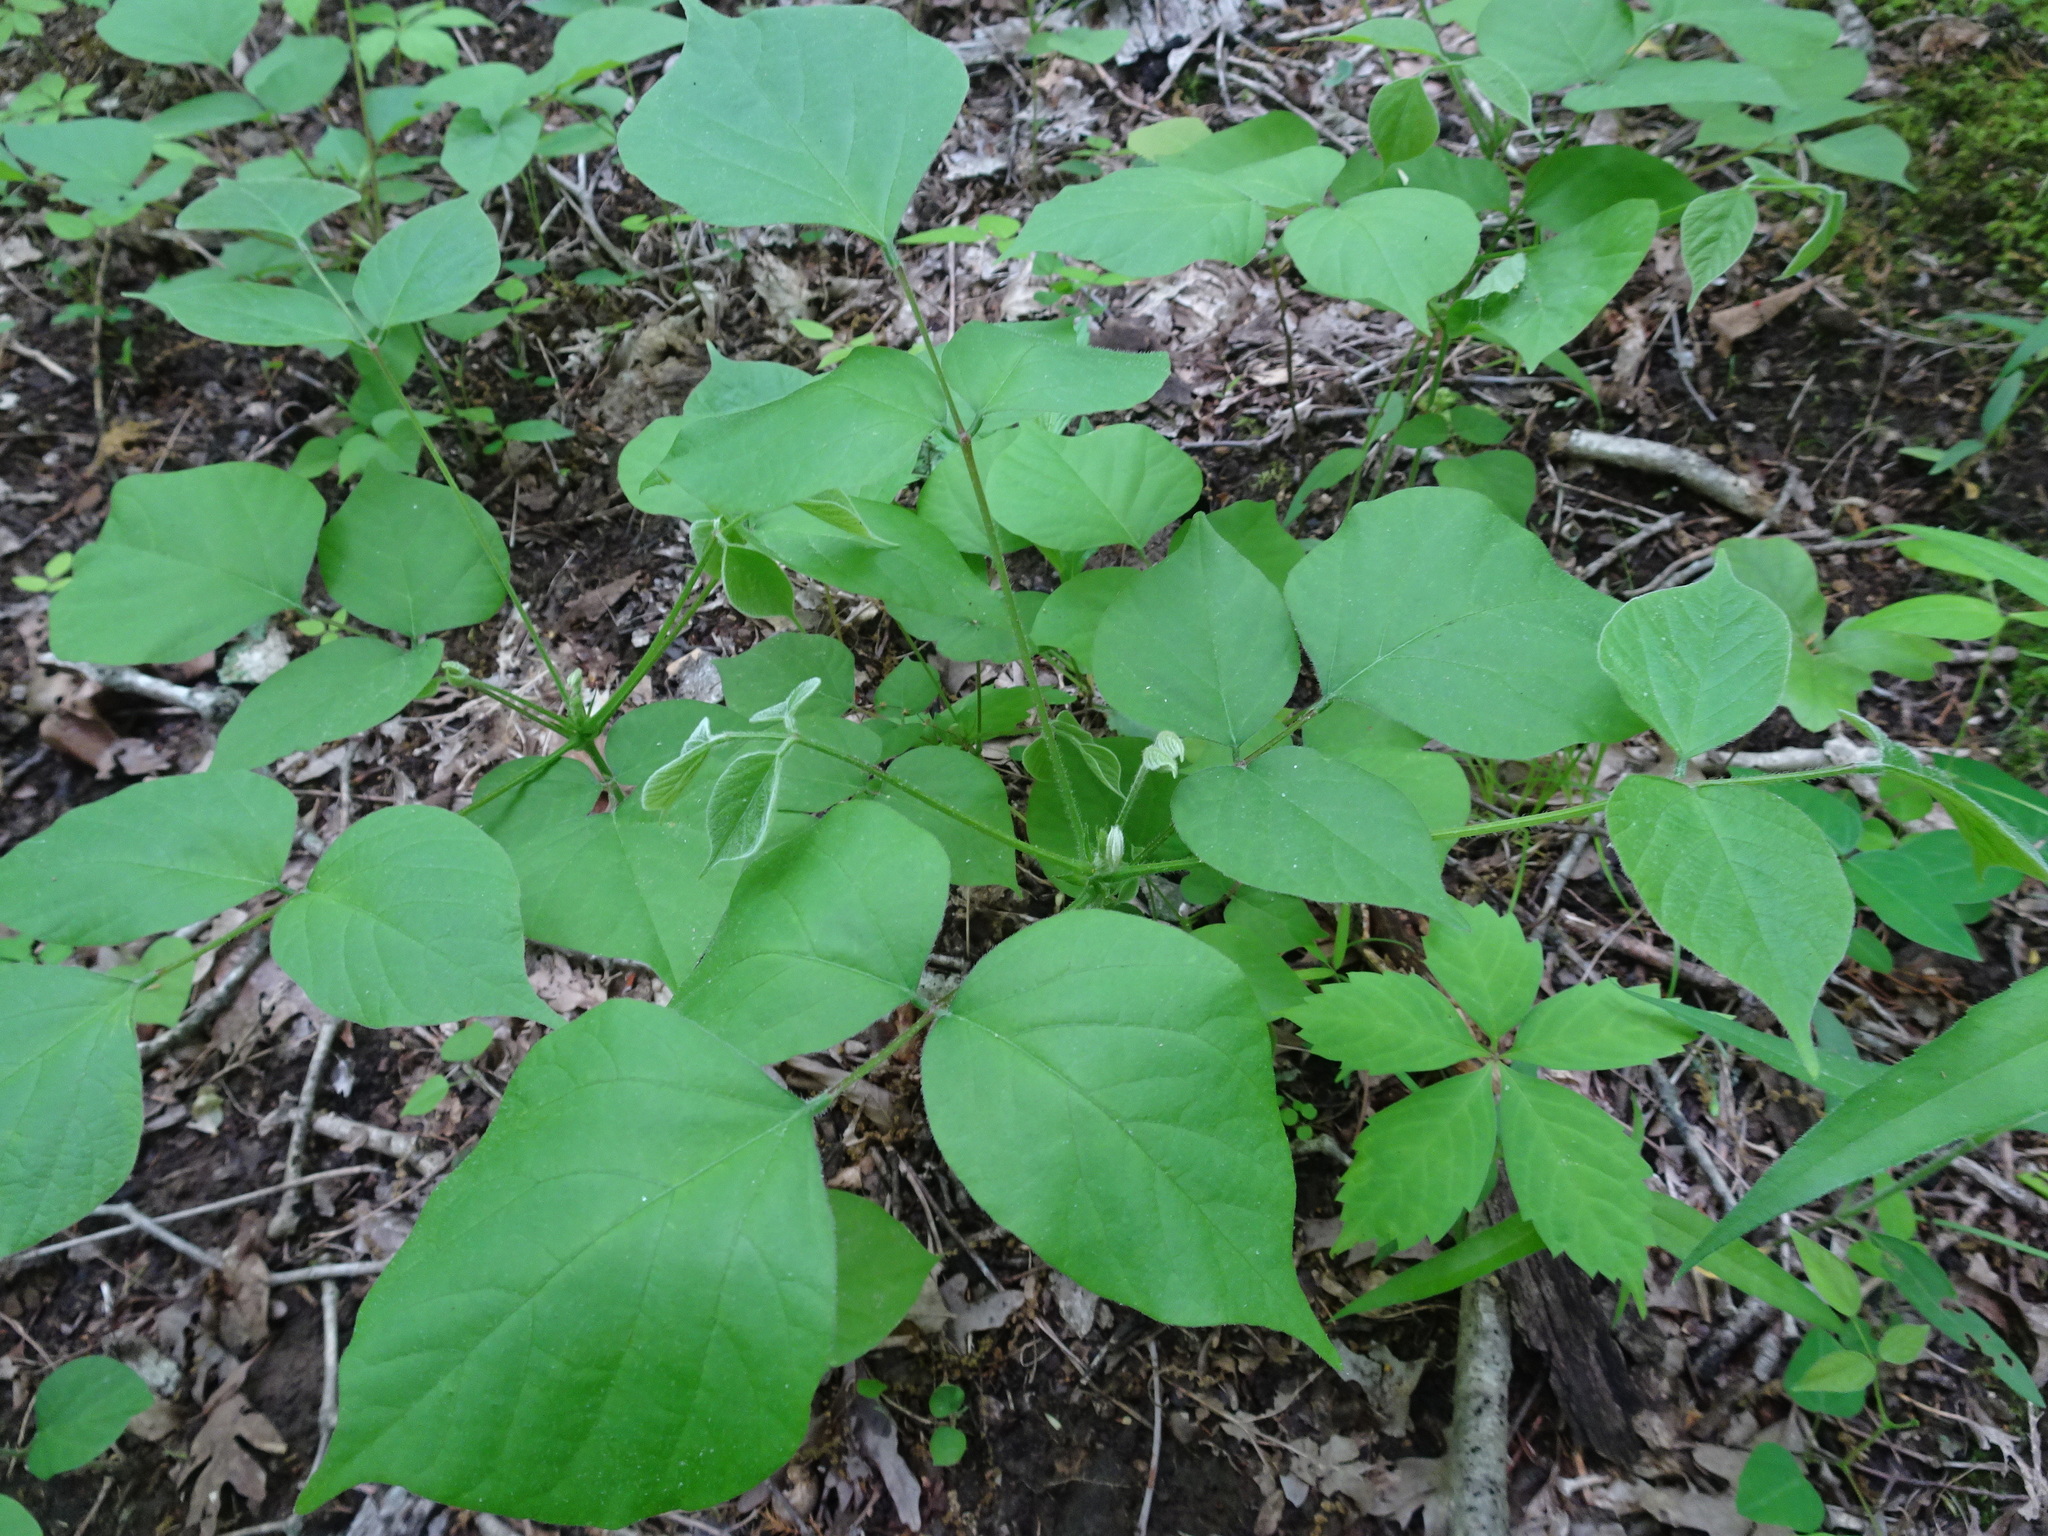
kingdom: Plantae
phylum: Tracheophyta
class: Magnoliopsida
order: Fabales
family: Fabaceae
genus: Hylodesmum
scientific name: Hylodesmum glutinosum
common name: Clustered-leaved tick-trefoil
